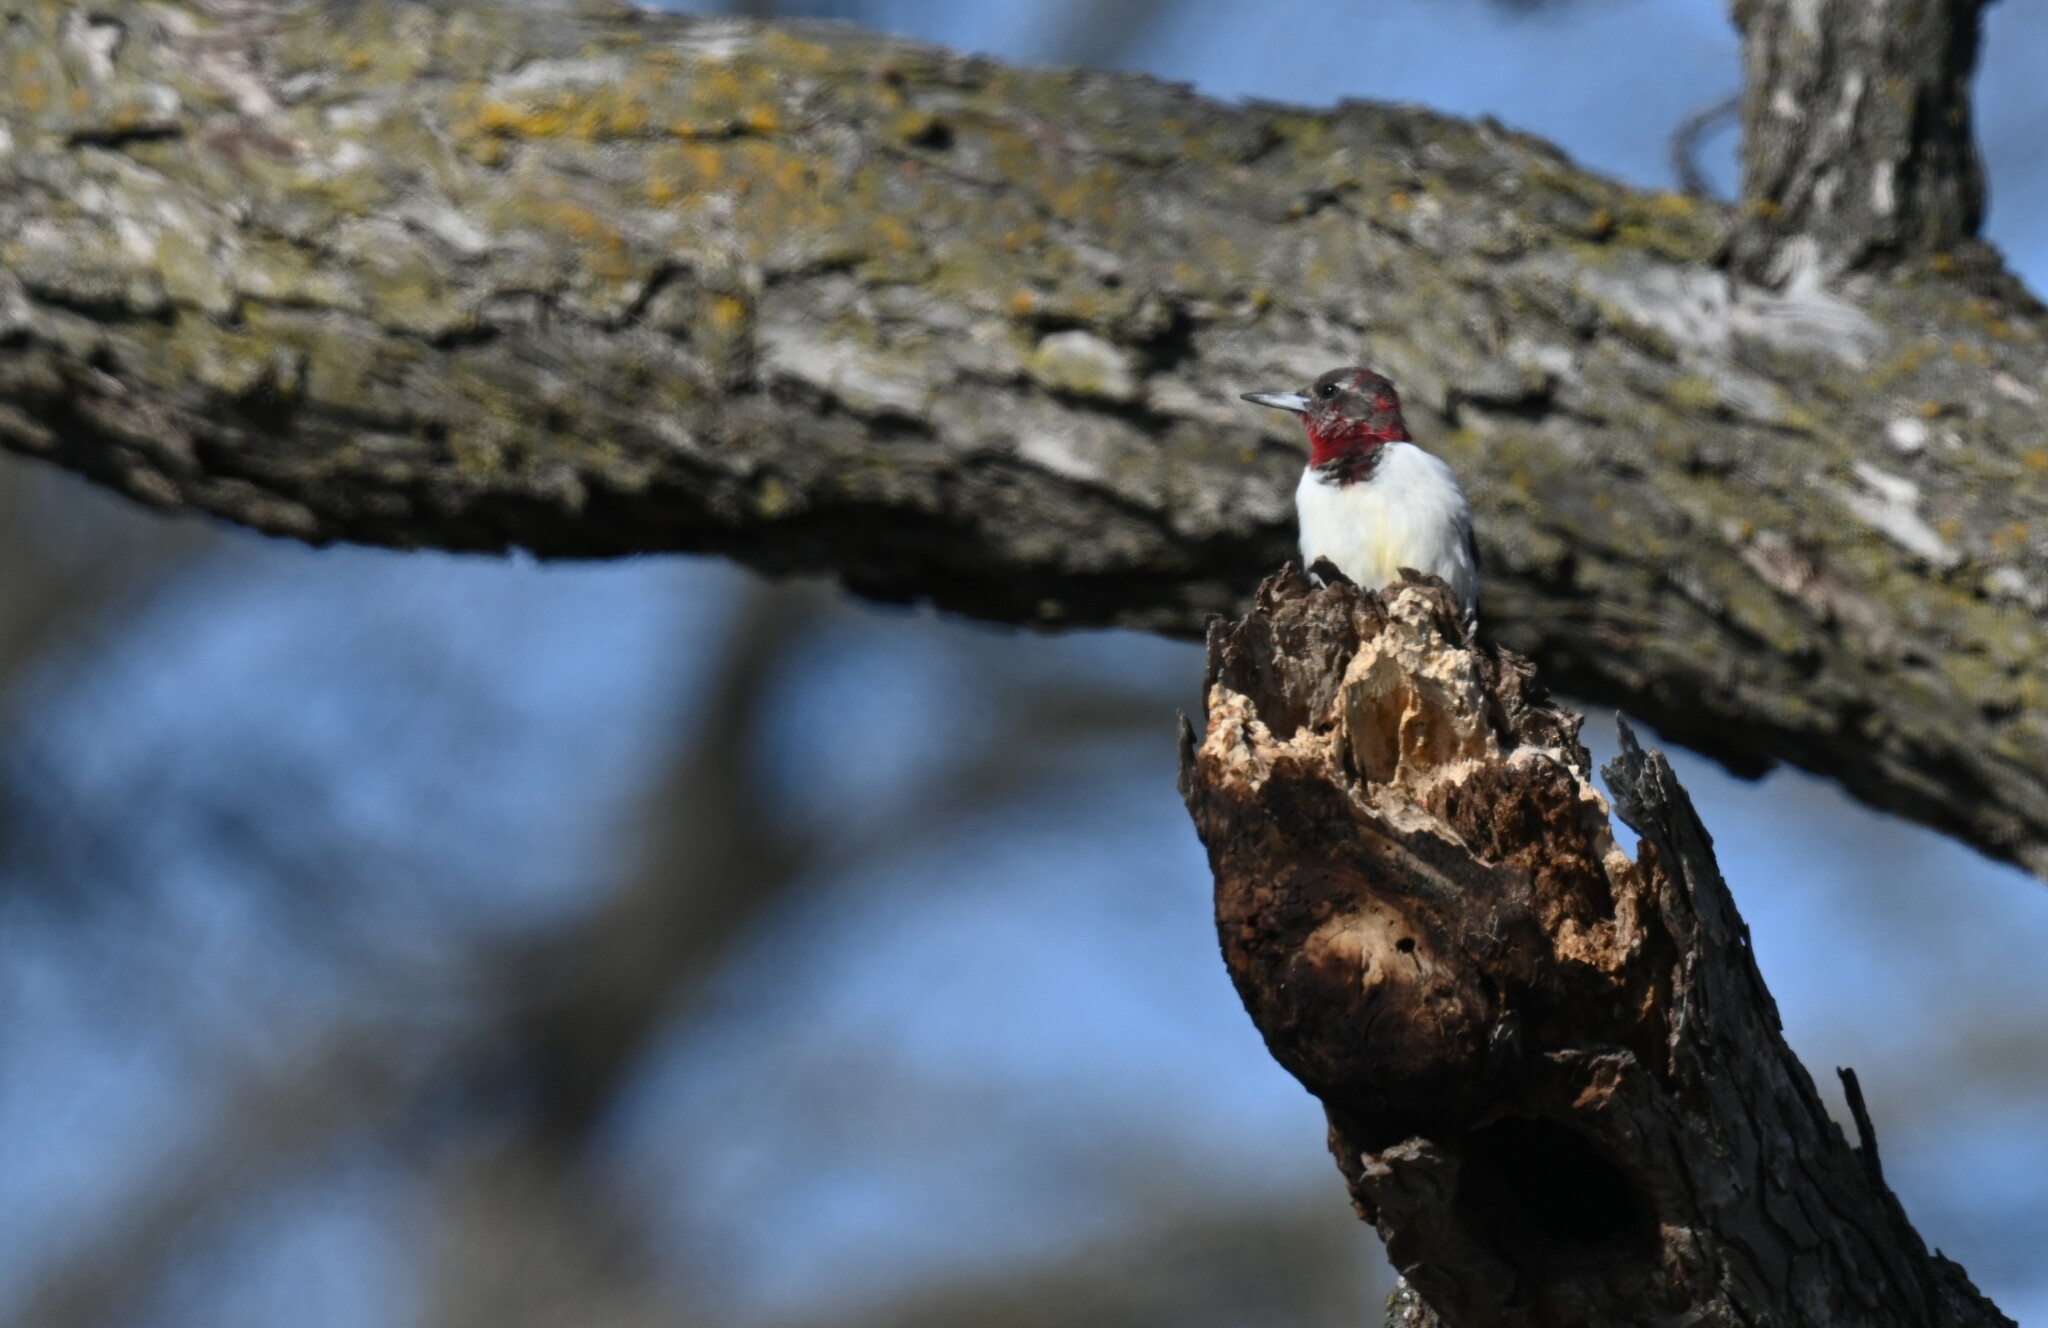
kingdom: Animalia
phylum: Chordata
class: Aves
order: Piciformes
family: Picidae
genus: Melanerpes
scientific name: Melanerpes erythrocephalus
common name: Red-headed woodpecker
